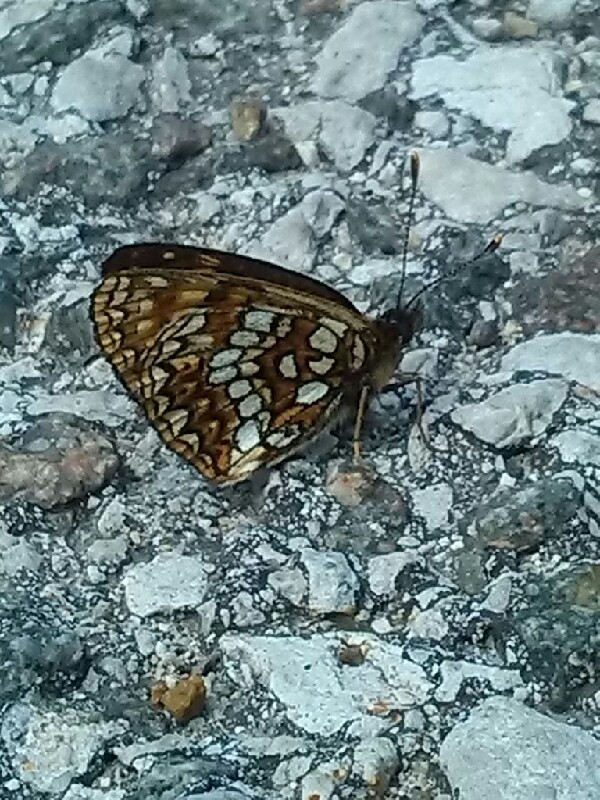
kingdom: Animalia
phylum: Arthropoda
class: Insecta
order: Lepidoptera
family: Nymphalidae
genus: Melitaea
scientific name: Melitaea diamina
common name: False heath fritillary
